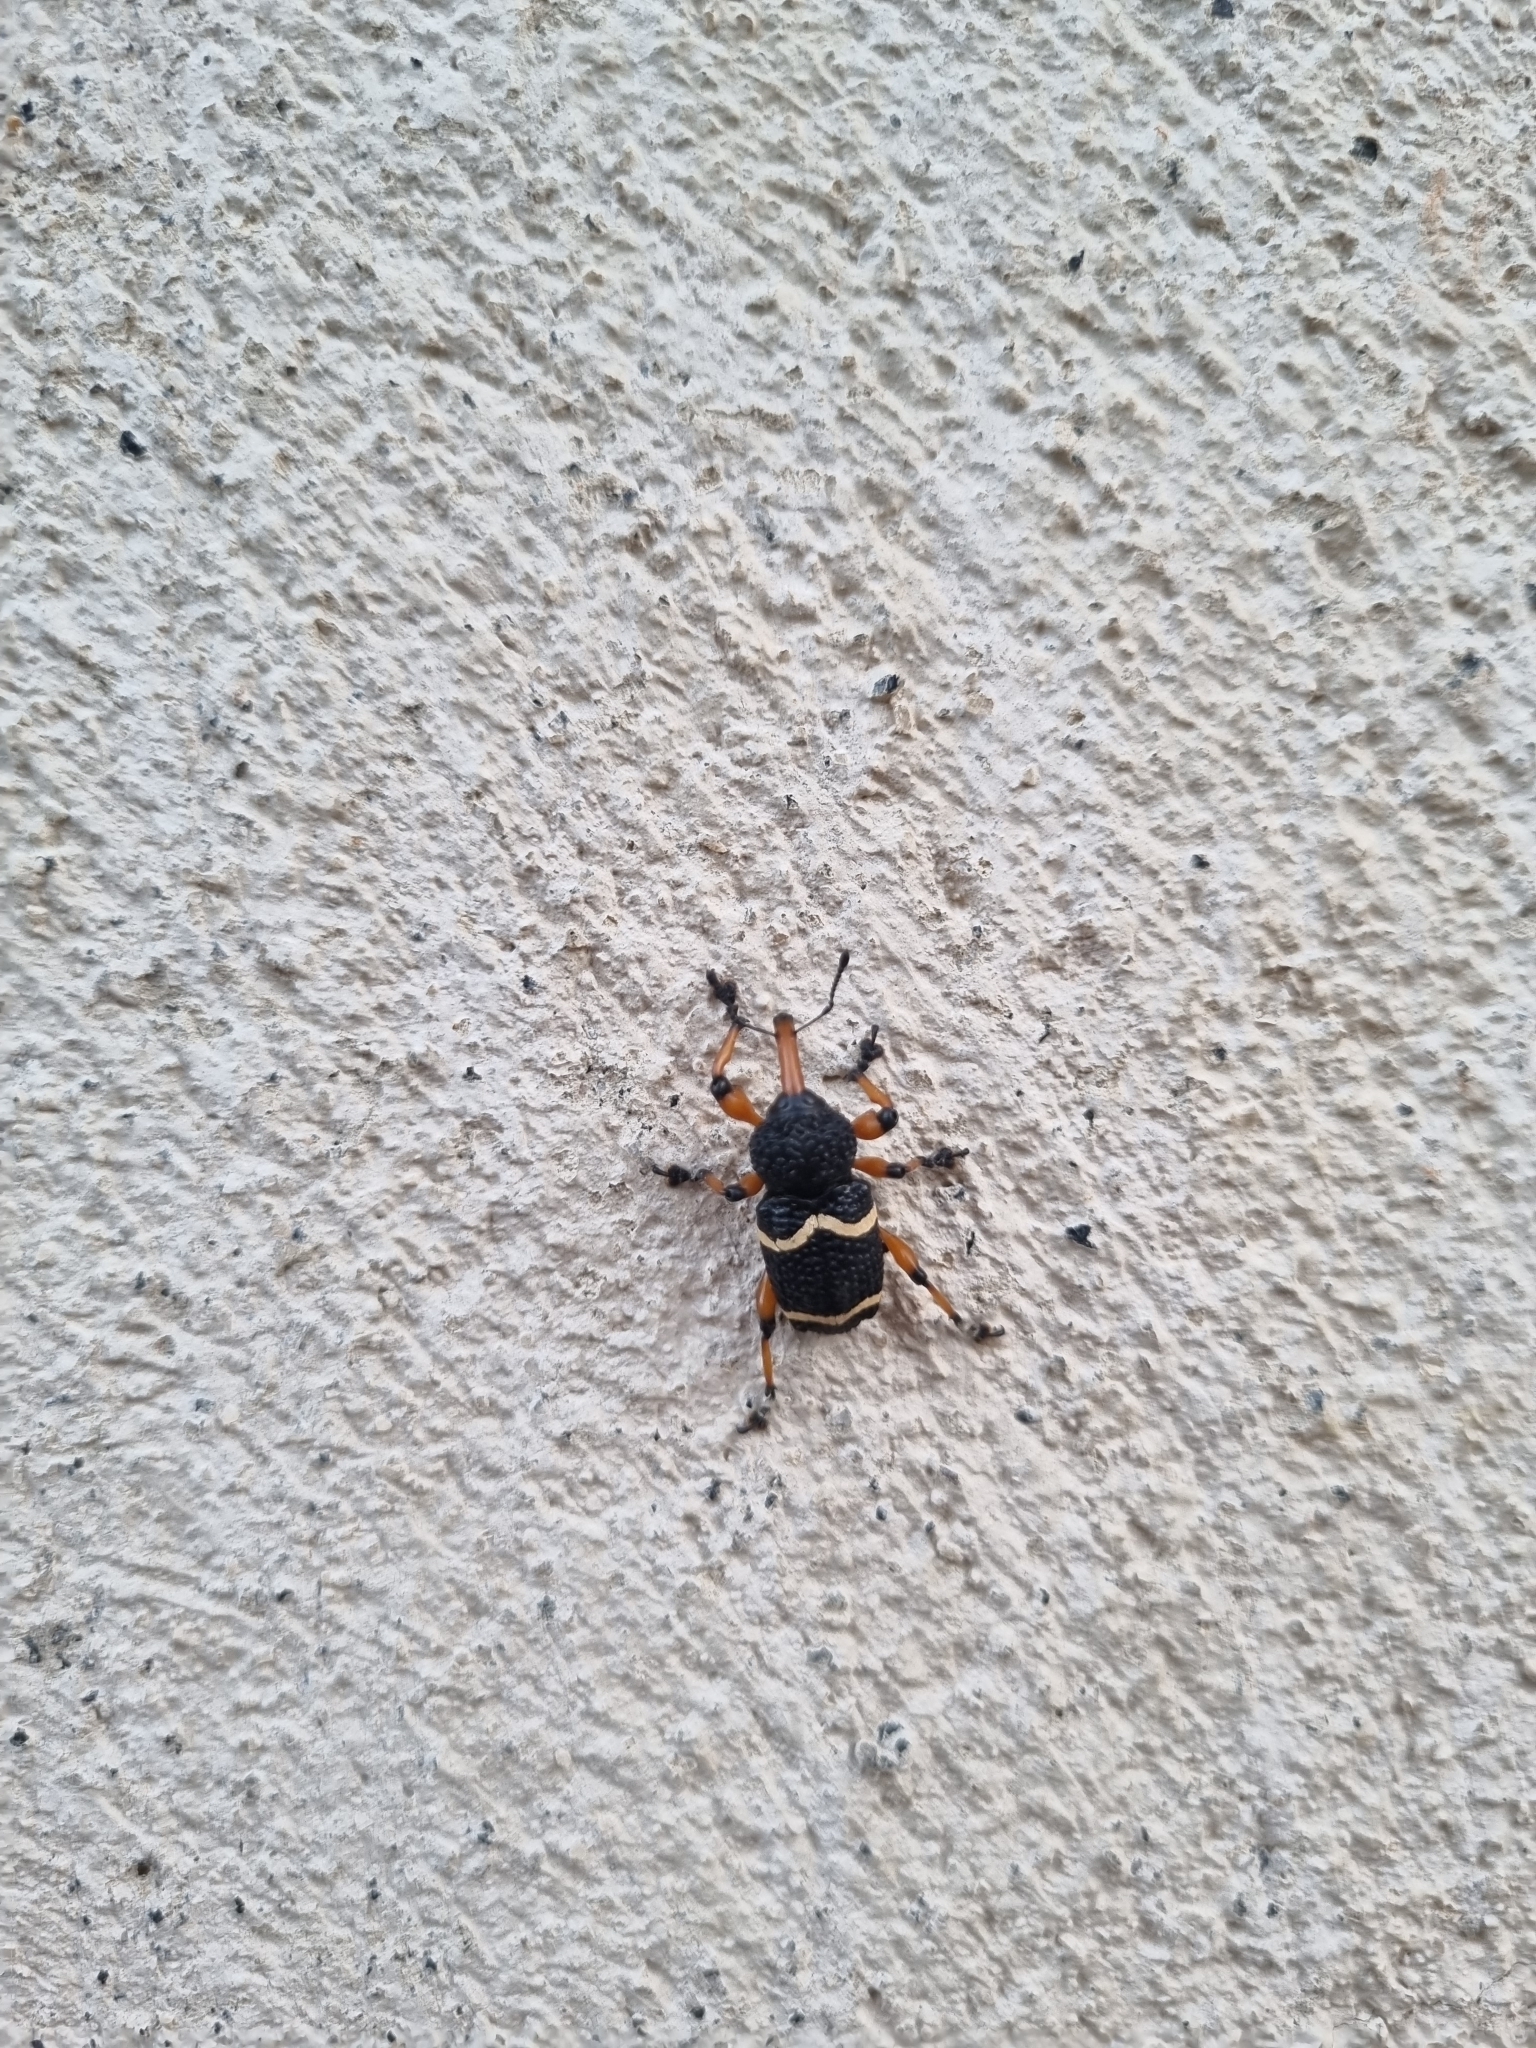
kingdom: Animalia
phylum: Arthropoda
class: Insecta
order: Coleoptera
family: Curculionidae
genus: Heilipus
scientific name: Heilipus degeeri
